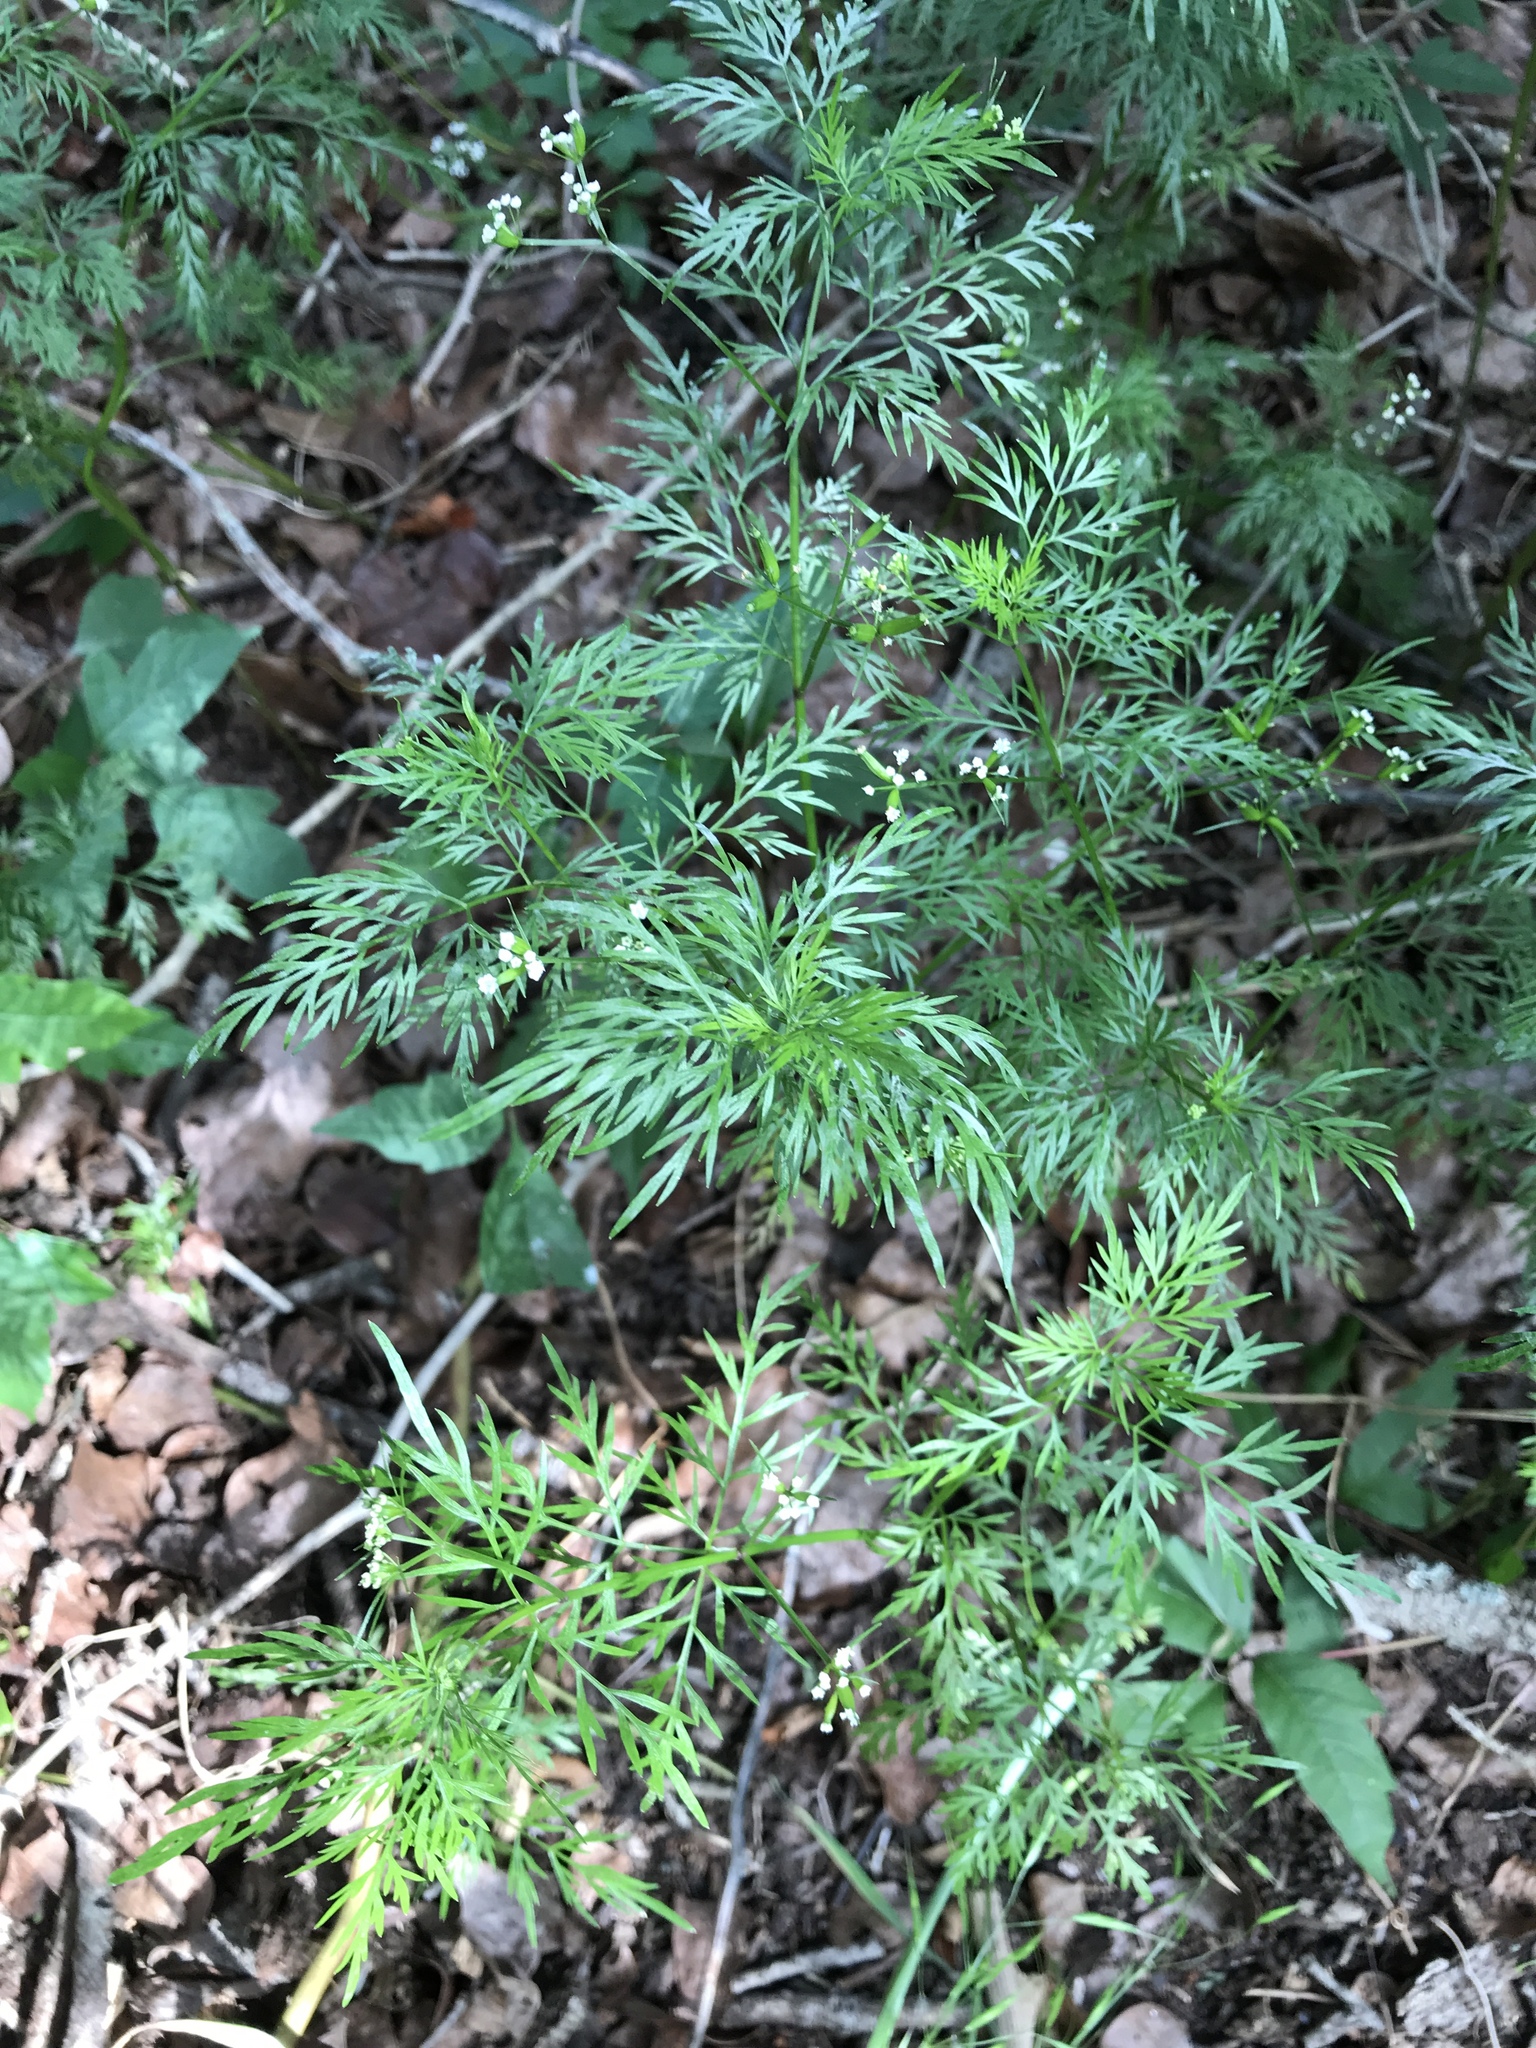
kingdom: Plantae
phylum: Tracheophyta
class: Magnoliopsida
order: Apiales
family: Apiaceae
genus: Trepocarpus
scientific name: Trepocarpus aethusae
